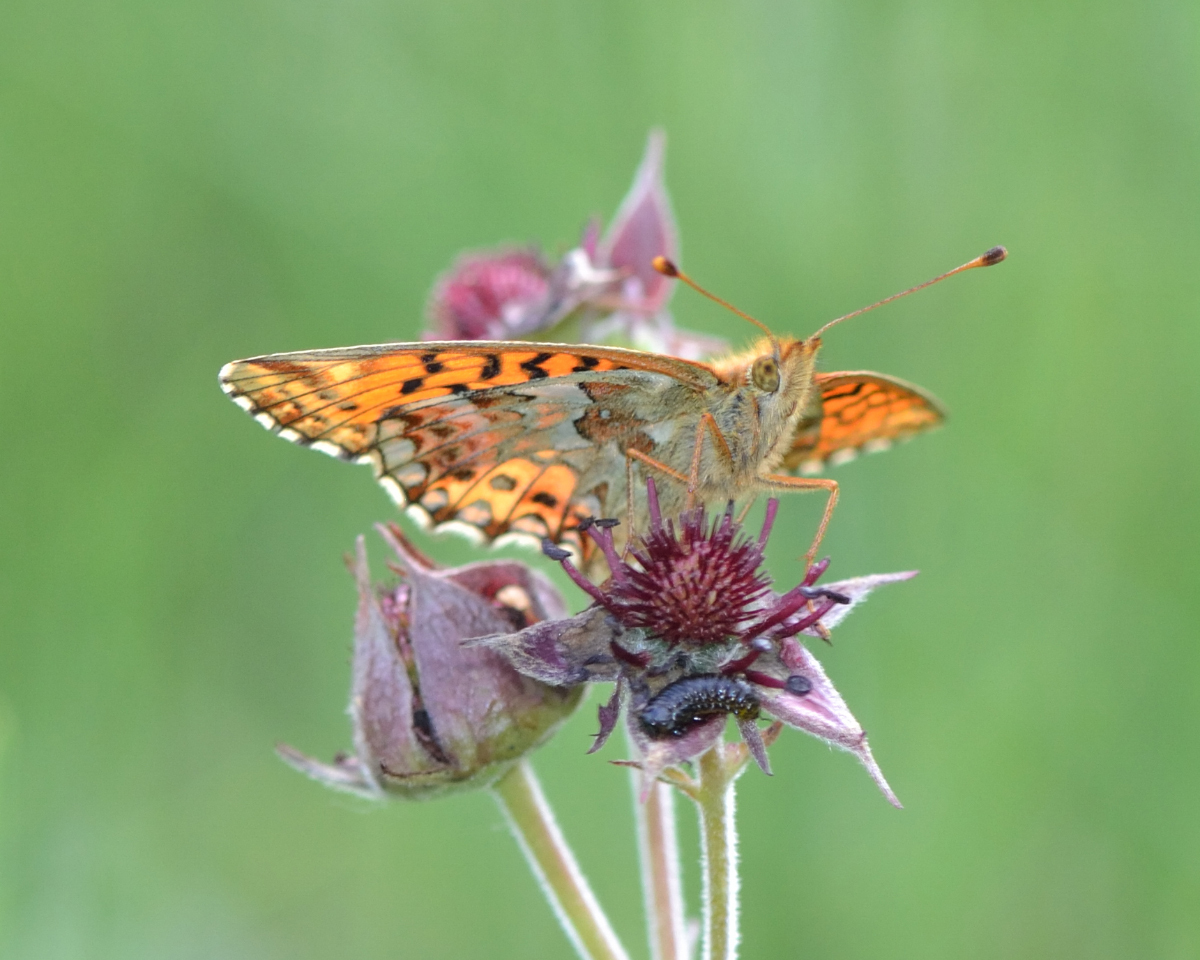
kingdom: Animalia
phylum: Arthropoda
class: Insecta
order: Lepidoptera
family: Nymphalidae
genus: Boloria
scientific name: Boloria aquilonaris
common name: Cranberry fritillary
